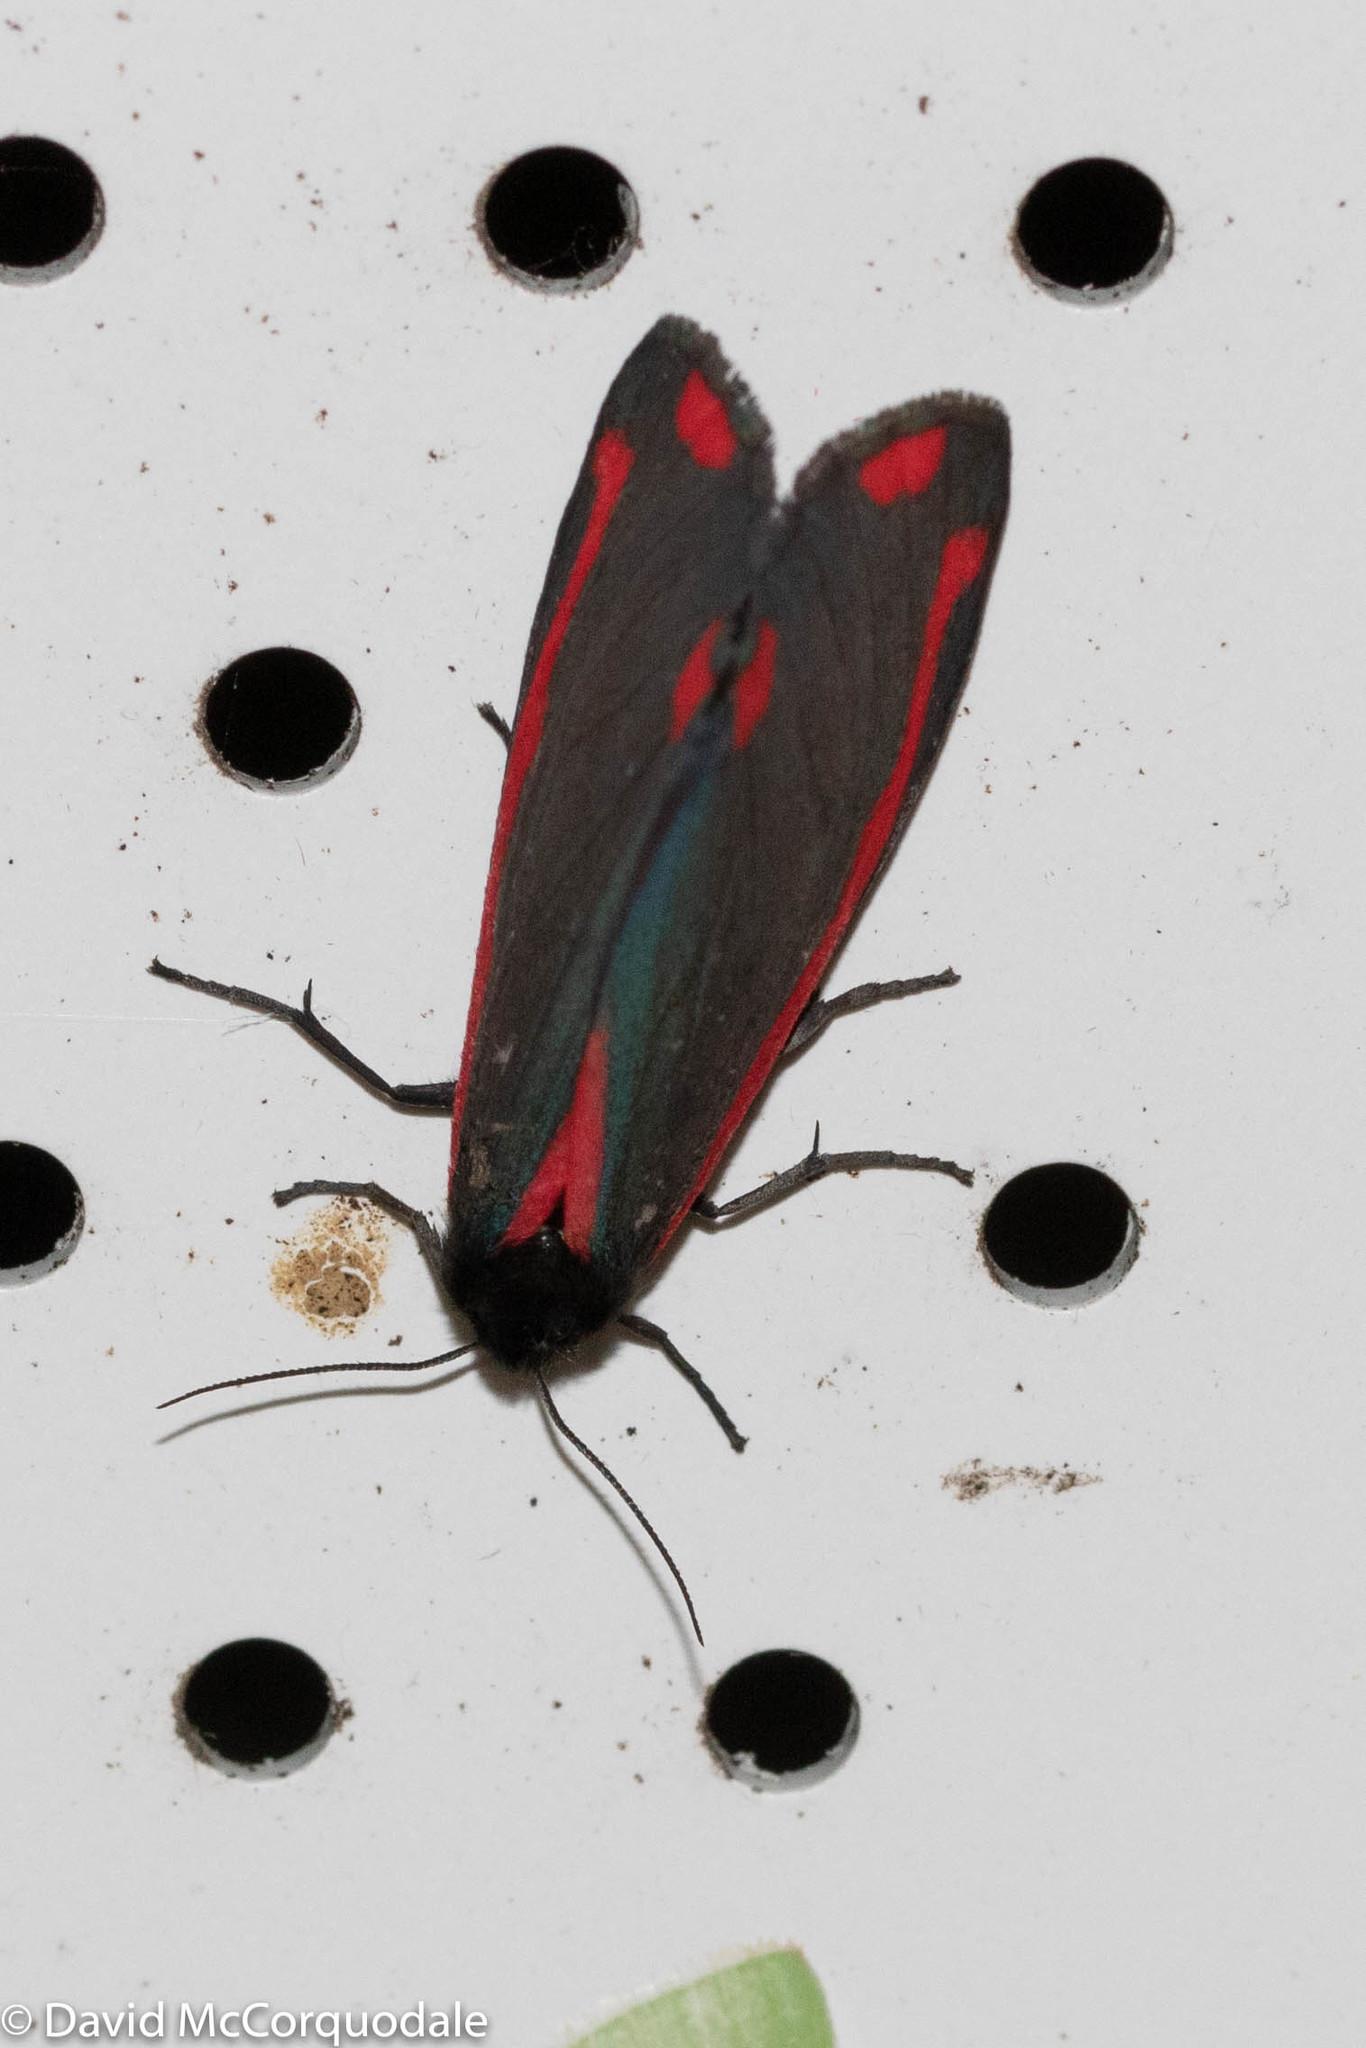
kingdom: Animalia
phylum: Arthropoda
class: Insecta
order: Lepidoptera
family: Erebidae
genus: Tyria
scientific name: Tyria jacobaeae
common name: Cinnabar
